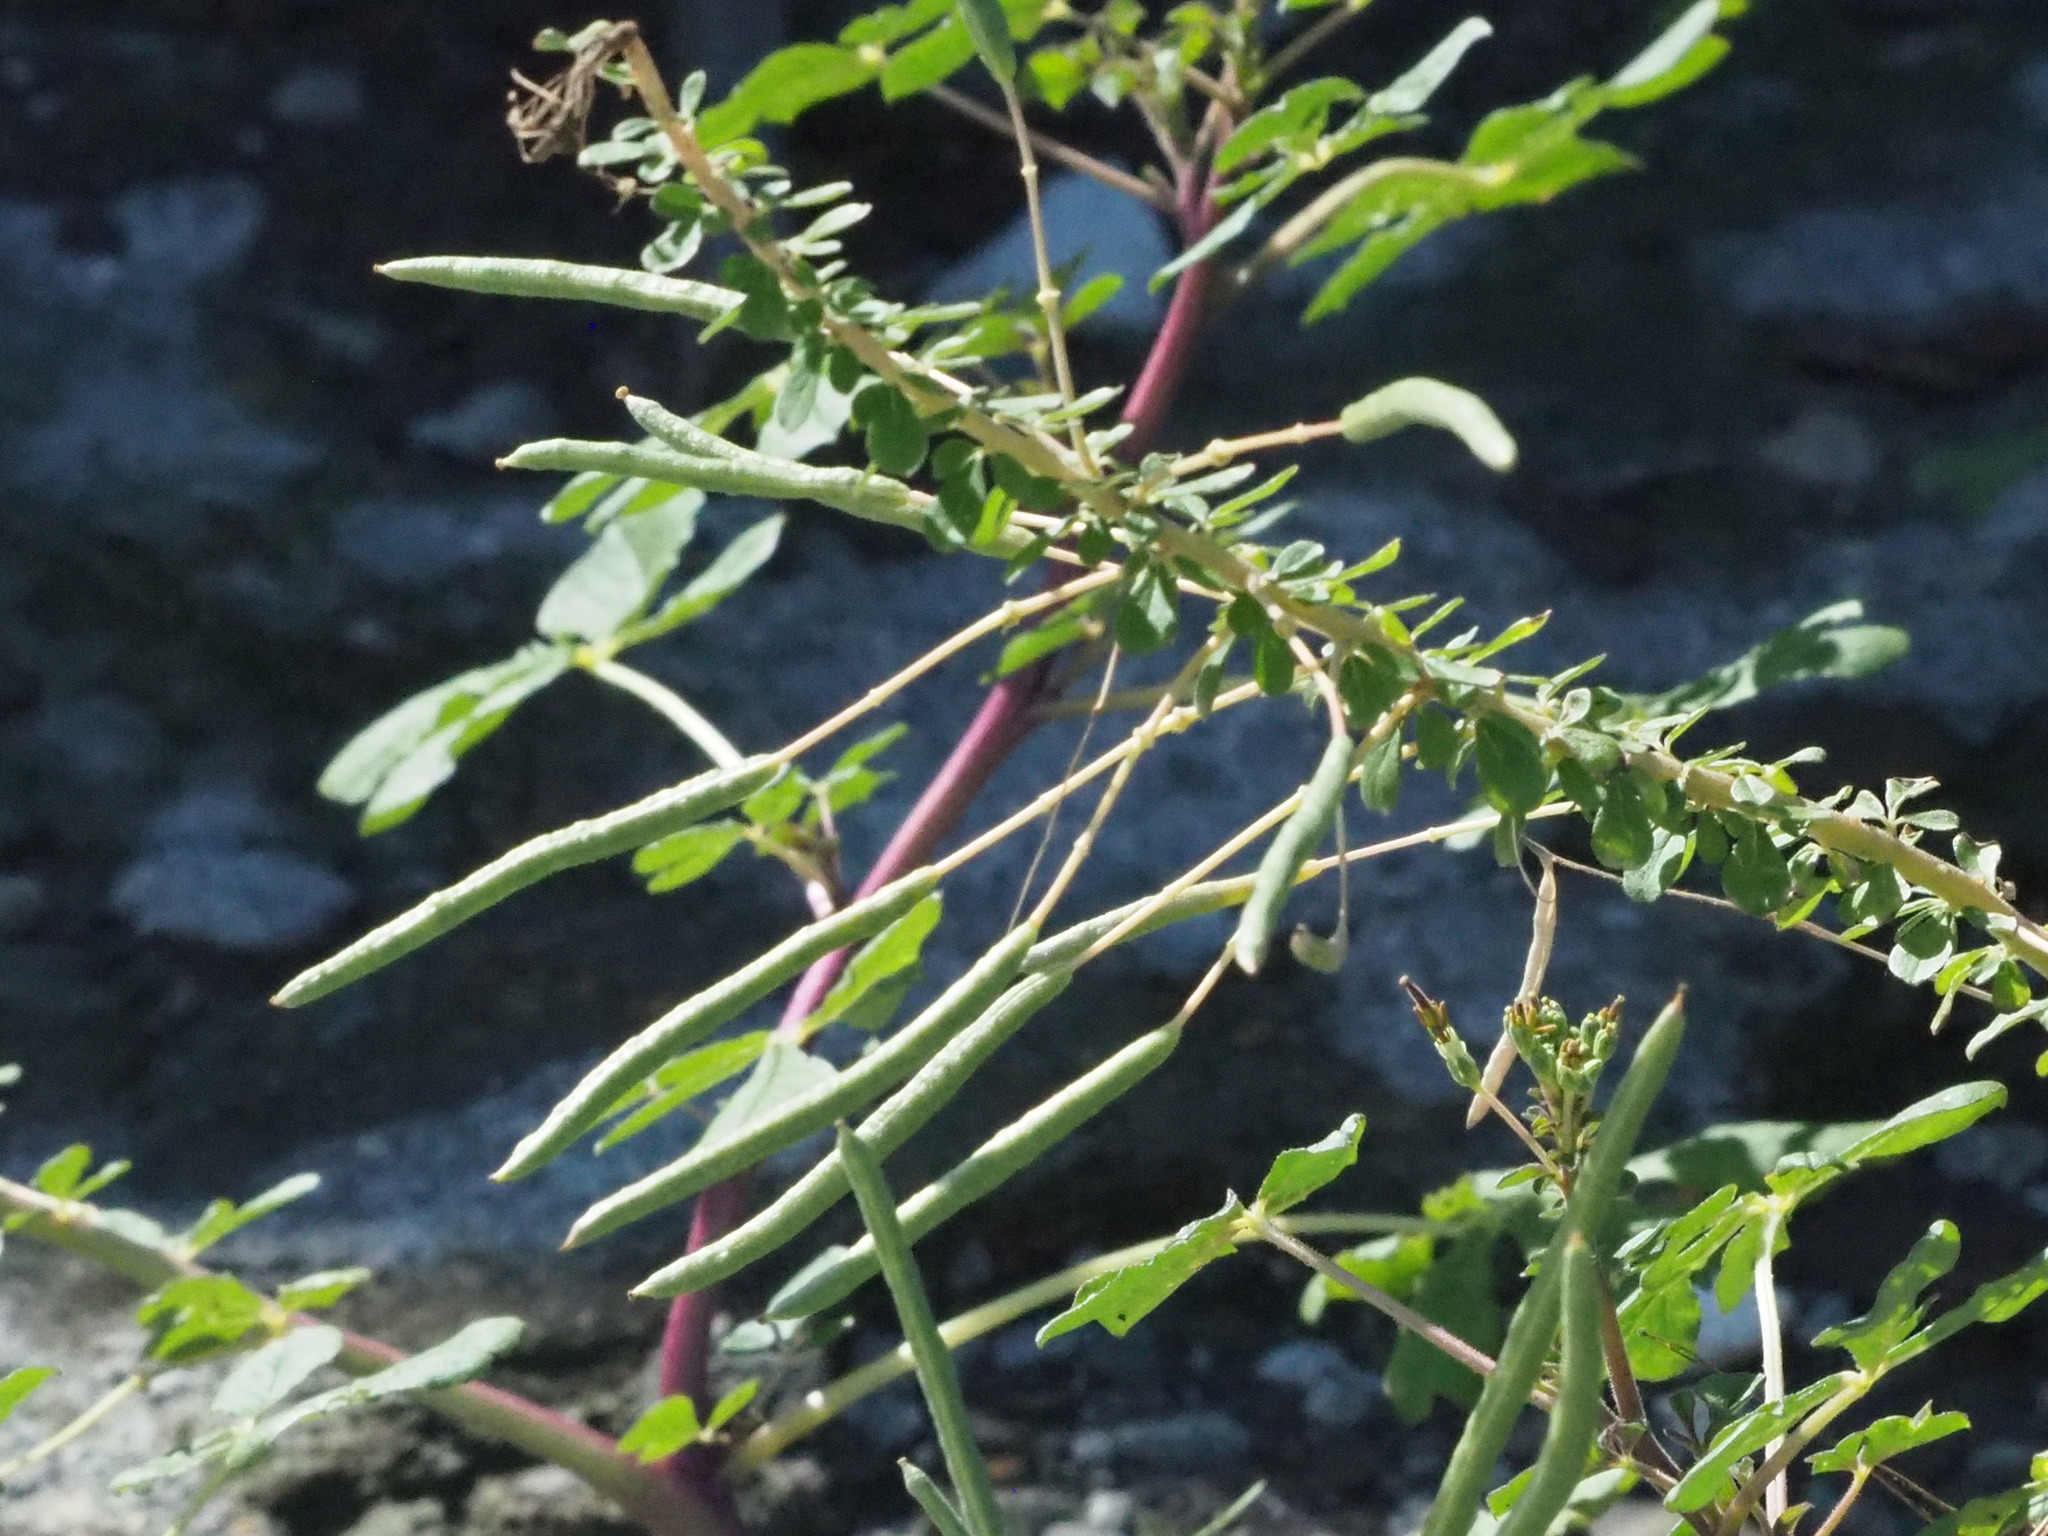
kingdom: Plantae
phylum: Tracheophyta
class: Magnoliopsida
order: Brassicales
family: Cleomaceae
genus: Gynandropsis
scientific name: Gynandropsis gynandra
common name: Spiderwisp
